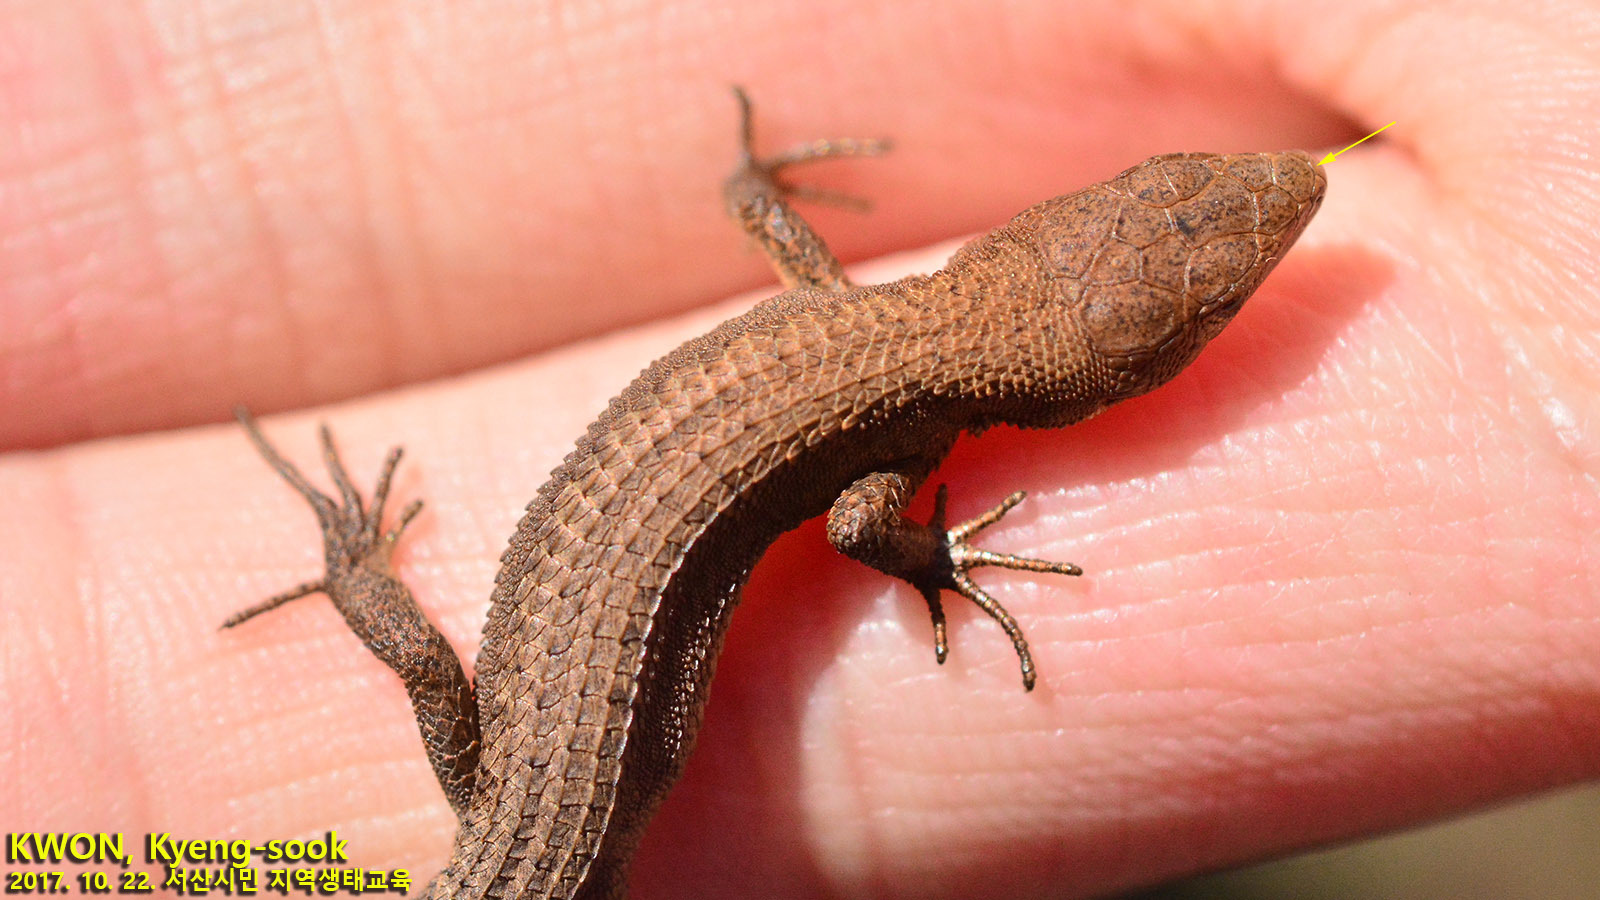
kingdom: Animalia
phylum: Chordata
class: Squamata
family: Lacertidae
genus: Takydromus
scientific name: Takydromus amurensis
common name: Amur grass lizard
